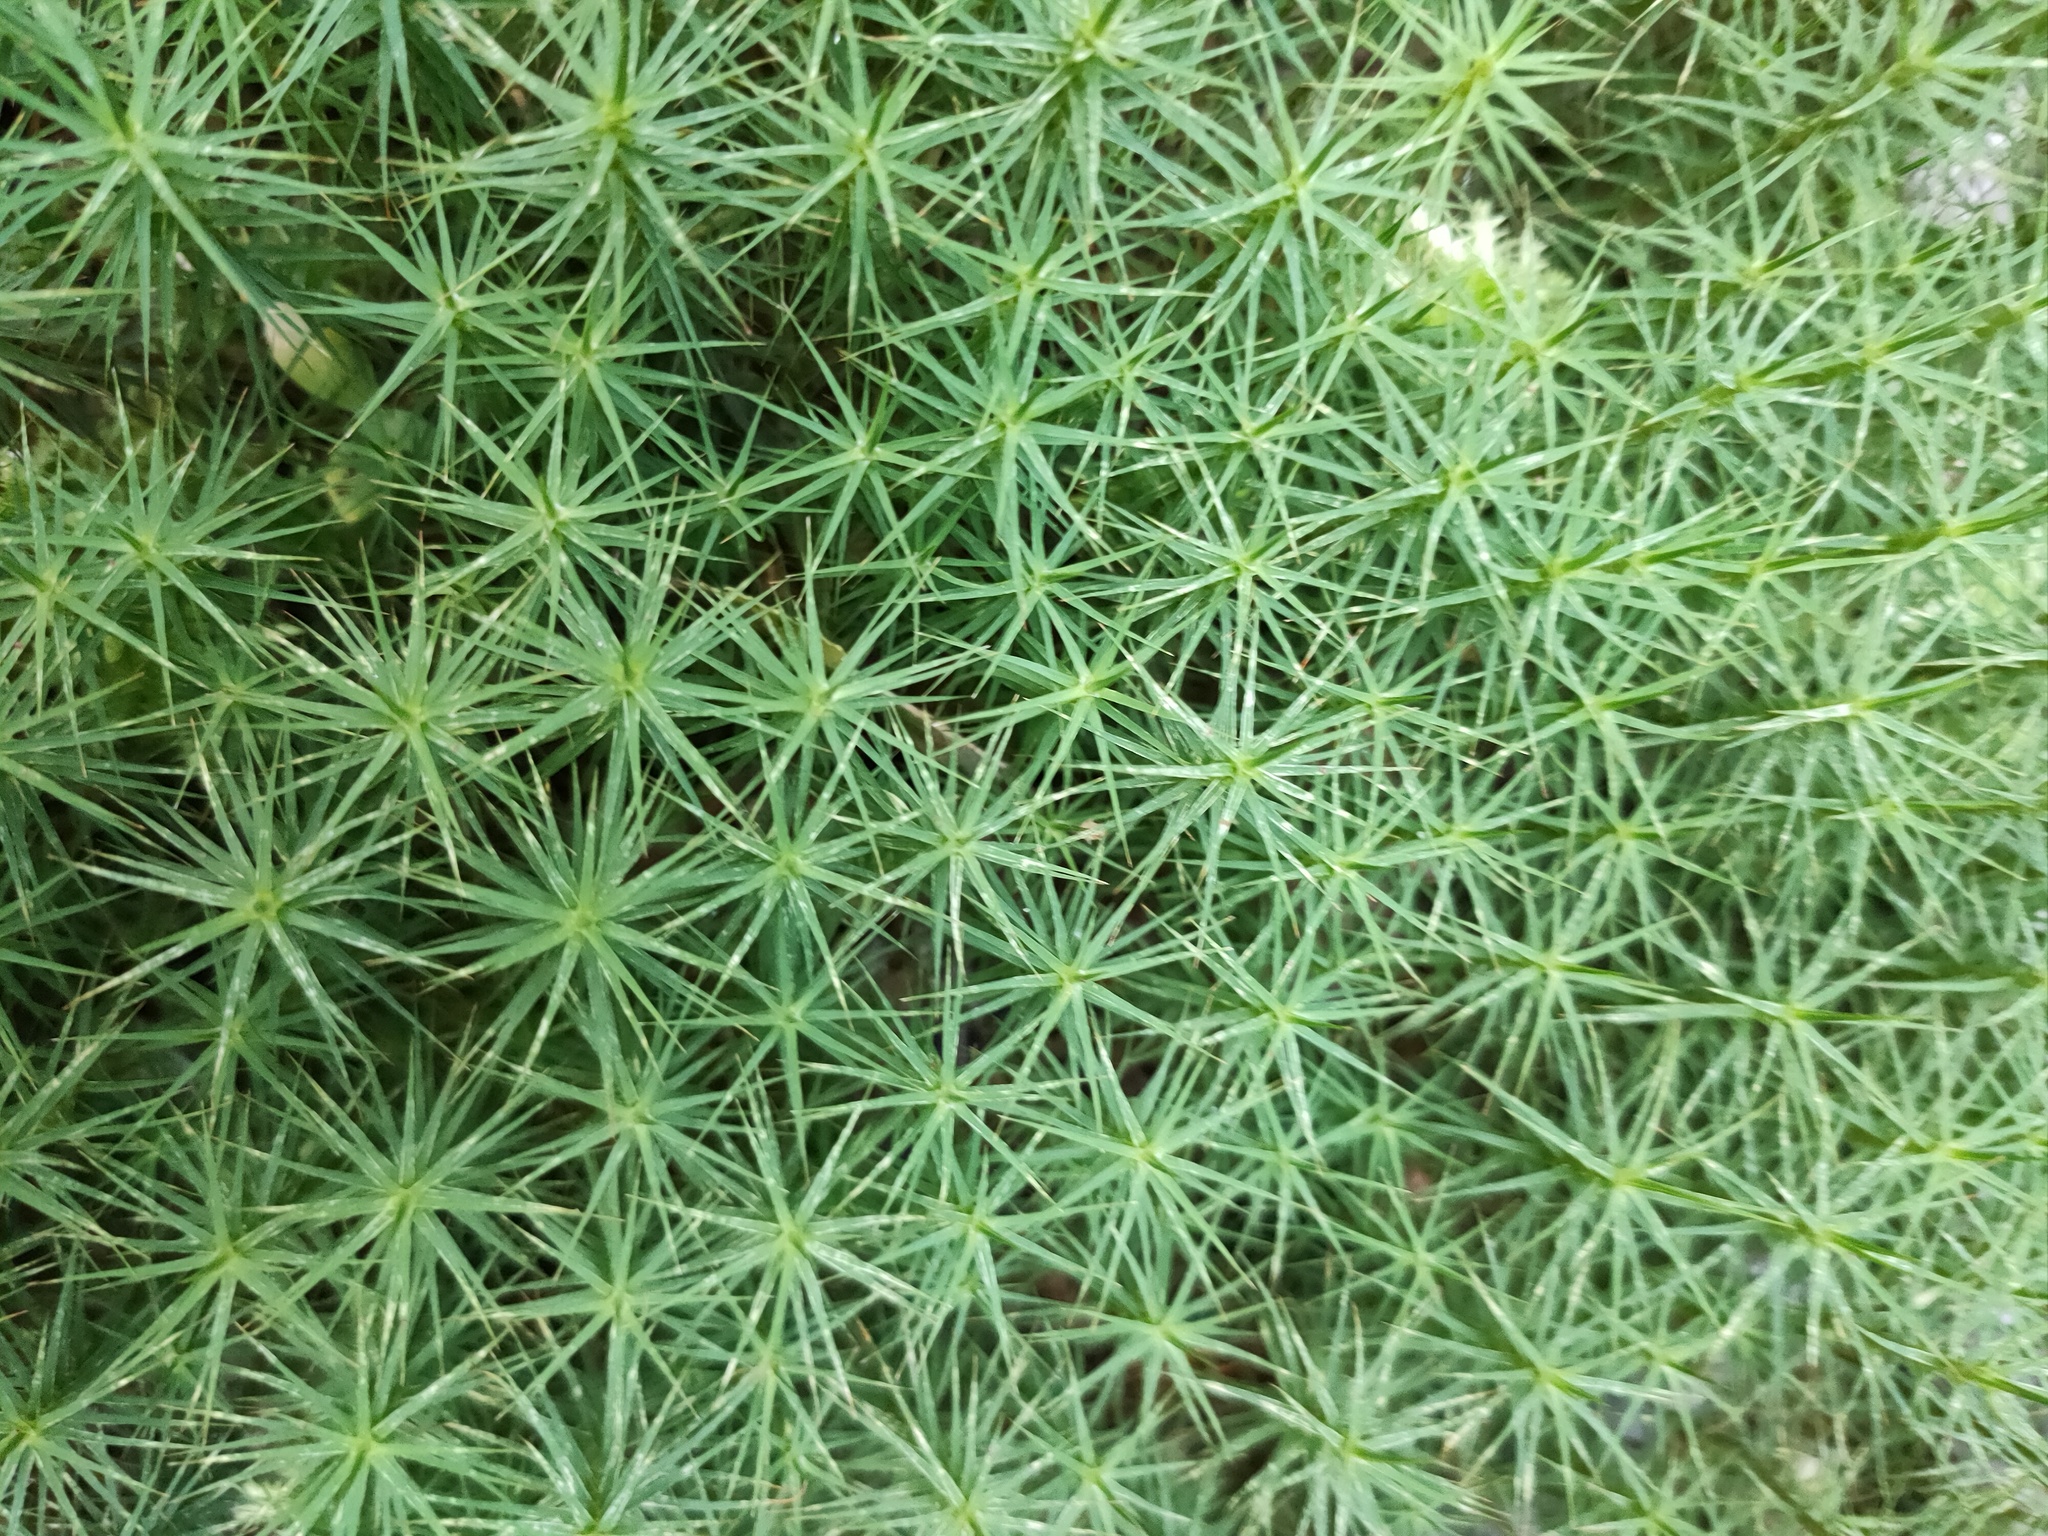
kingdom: Plantae
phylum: Bryophyta
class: Polytrichopsida
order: Polytrichales
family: Polytrichaceae
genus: Polytrichum
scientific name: Polytrichum commune
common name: Common haircap
